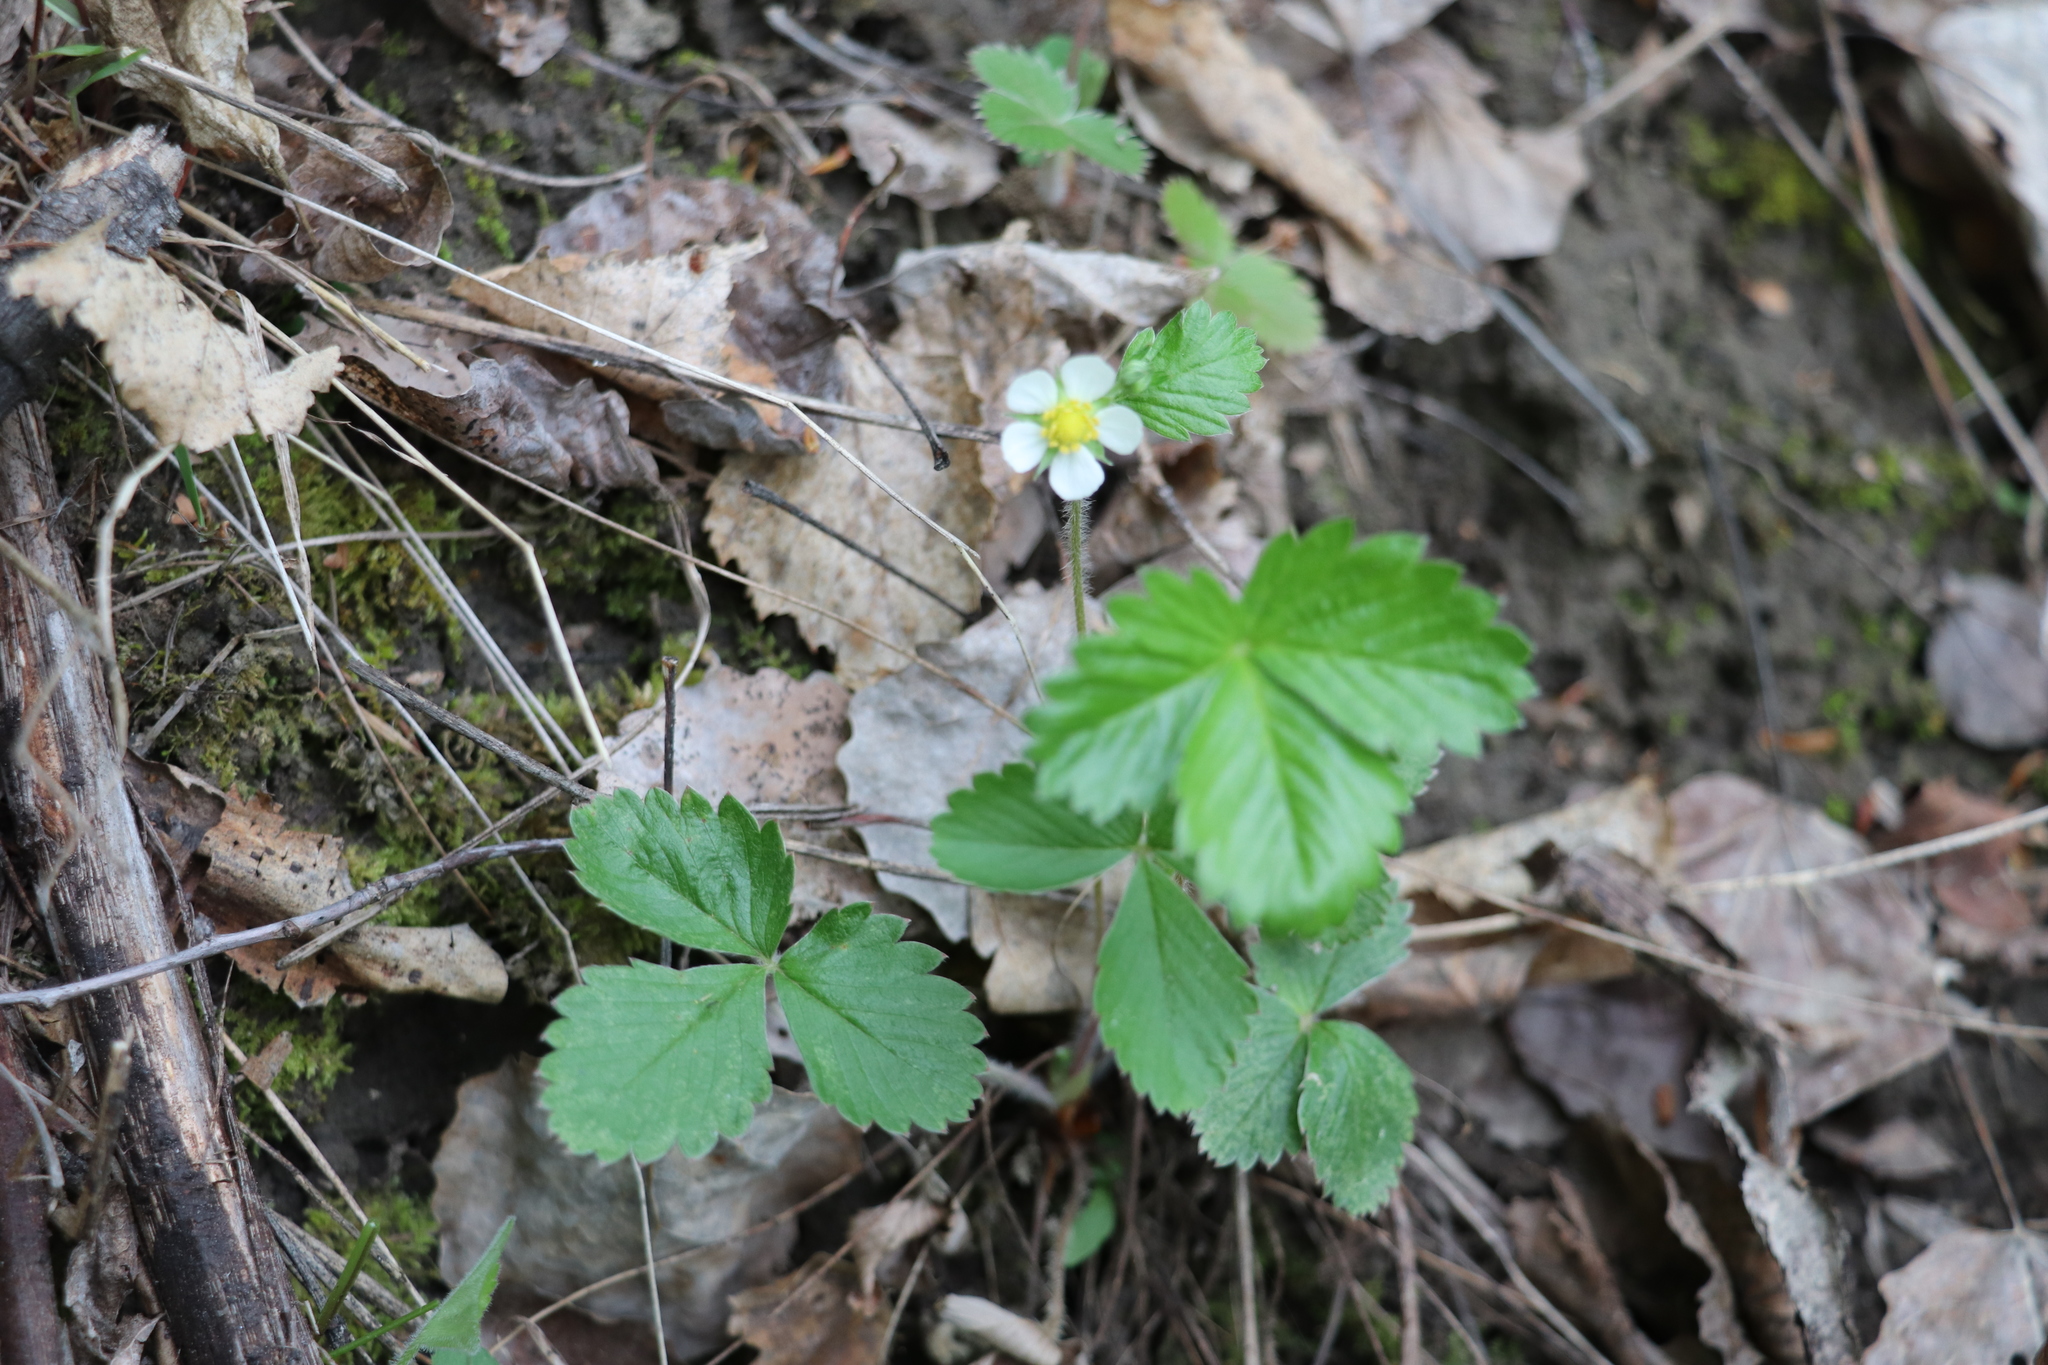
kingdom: Plantae
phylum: Tracheophyta
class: Magnoliopsida
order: Rosales
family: Rosaceae
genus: Fragaria
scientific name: Fragaria vesca
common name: Wild strawberry
